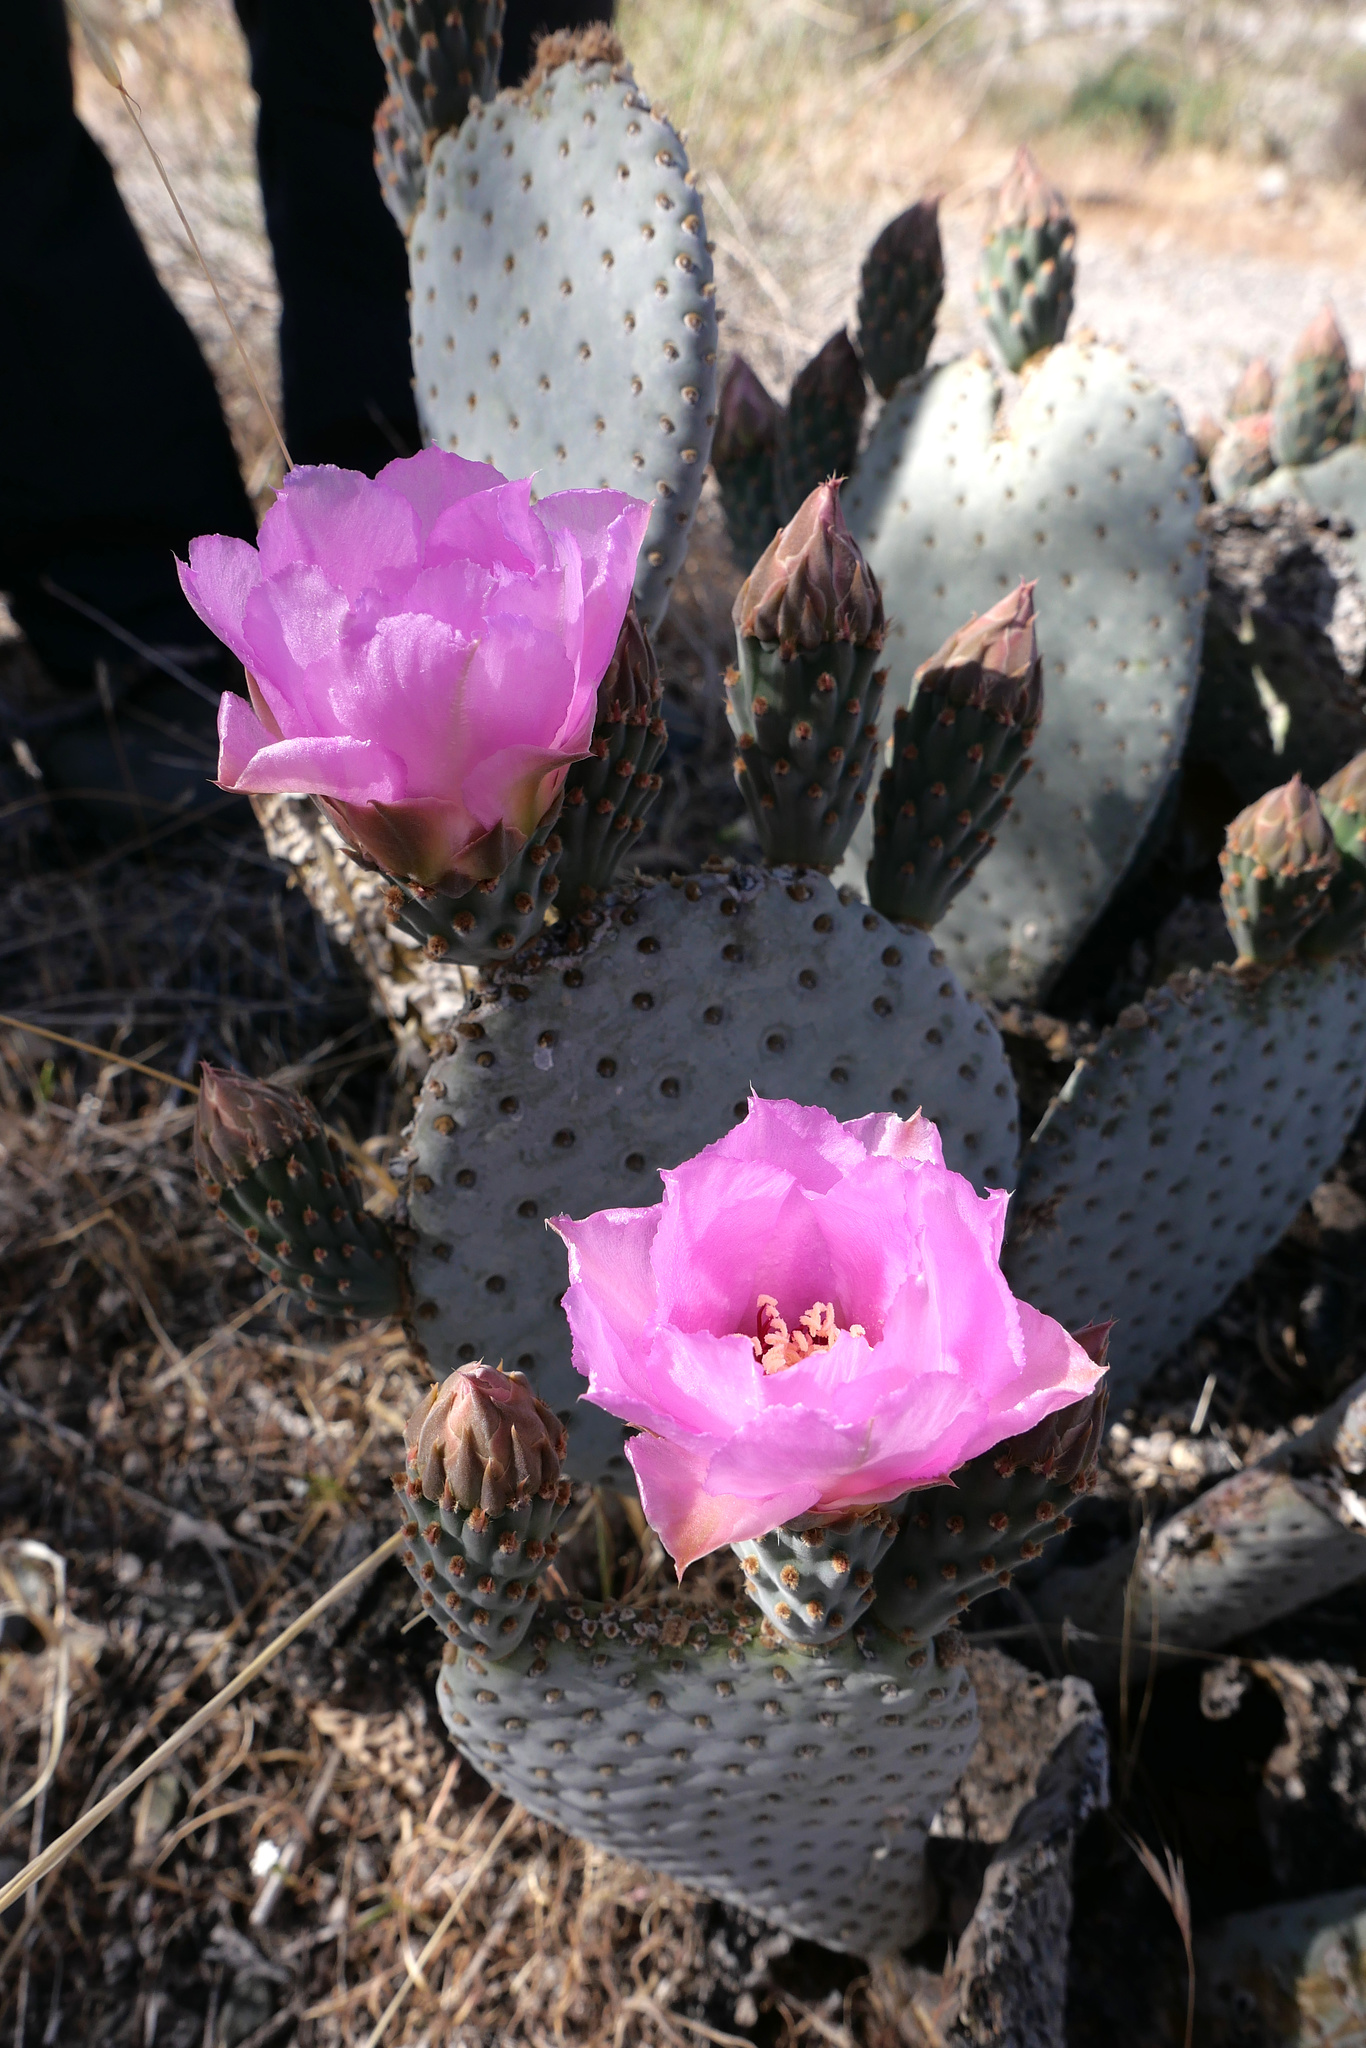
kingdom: Plantae
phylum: Tracheophyta
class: Magnoliopsida
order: Caryophyllales
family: Cactaceae
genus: Opuntia
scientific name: Opuntia basilaris
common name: Beavertail prickly-pear
